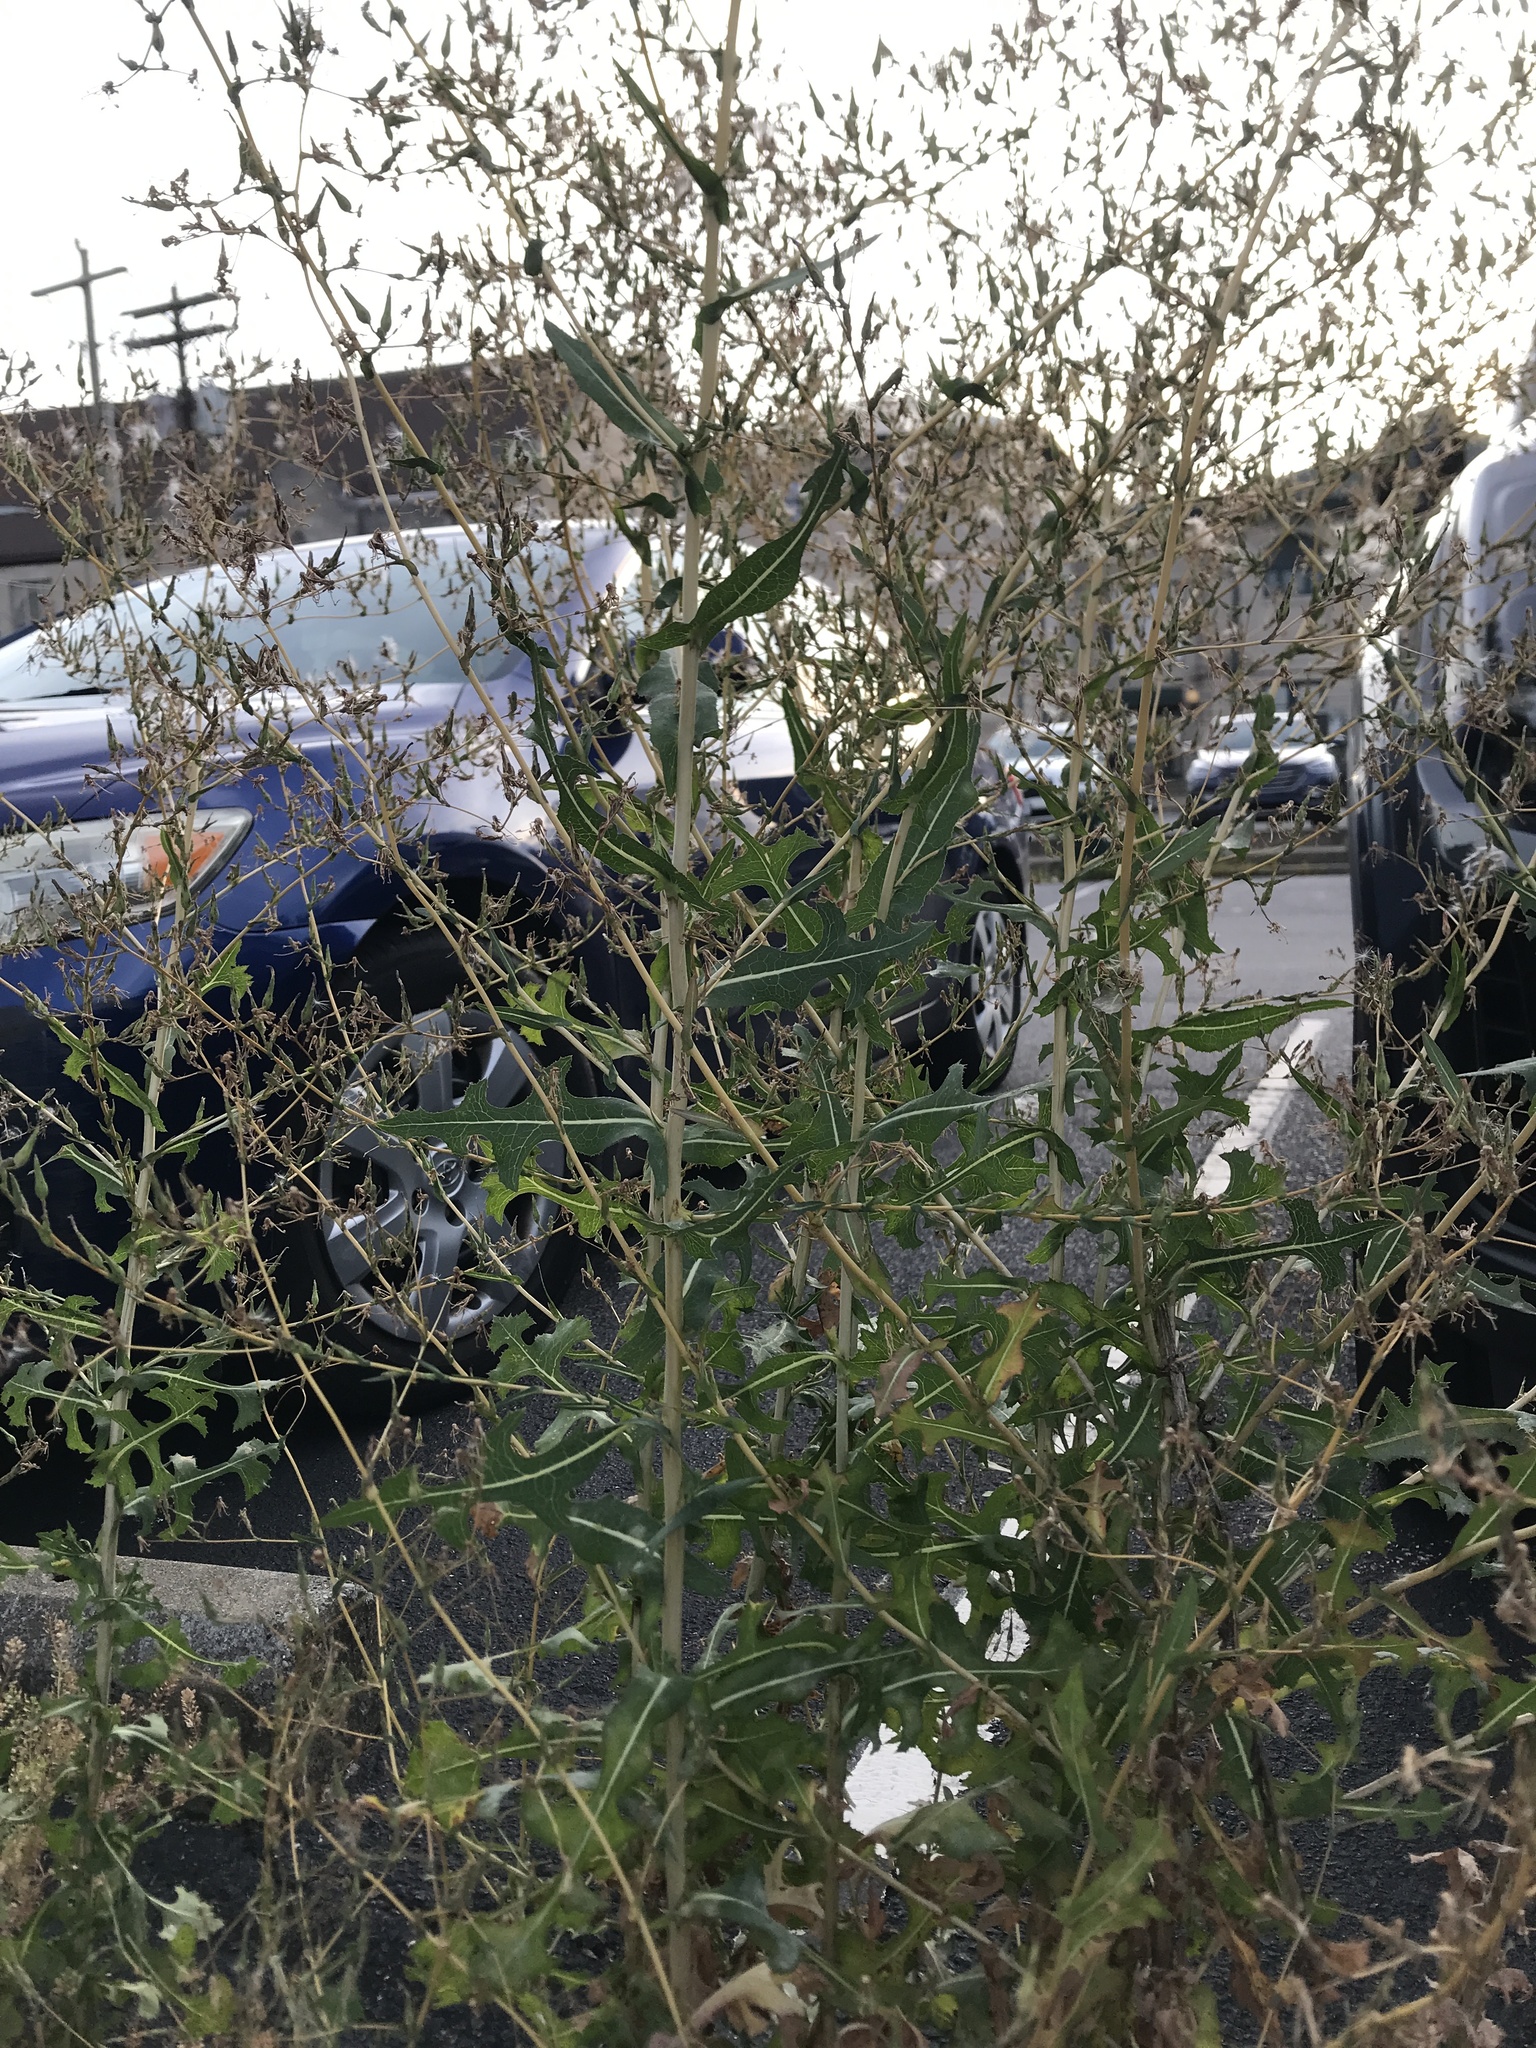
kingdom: Plantae
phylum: Tracheophyta
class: Magnoliopsida
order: Asterales
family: Asteraceae
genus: Lactuca
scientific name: Lactuca serriola
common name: Prickly lettuce
